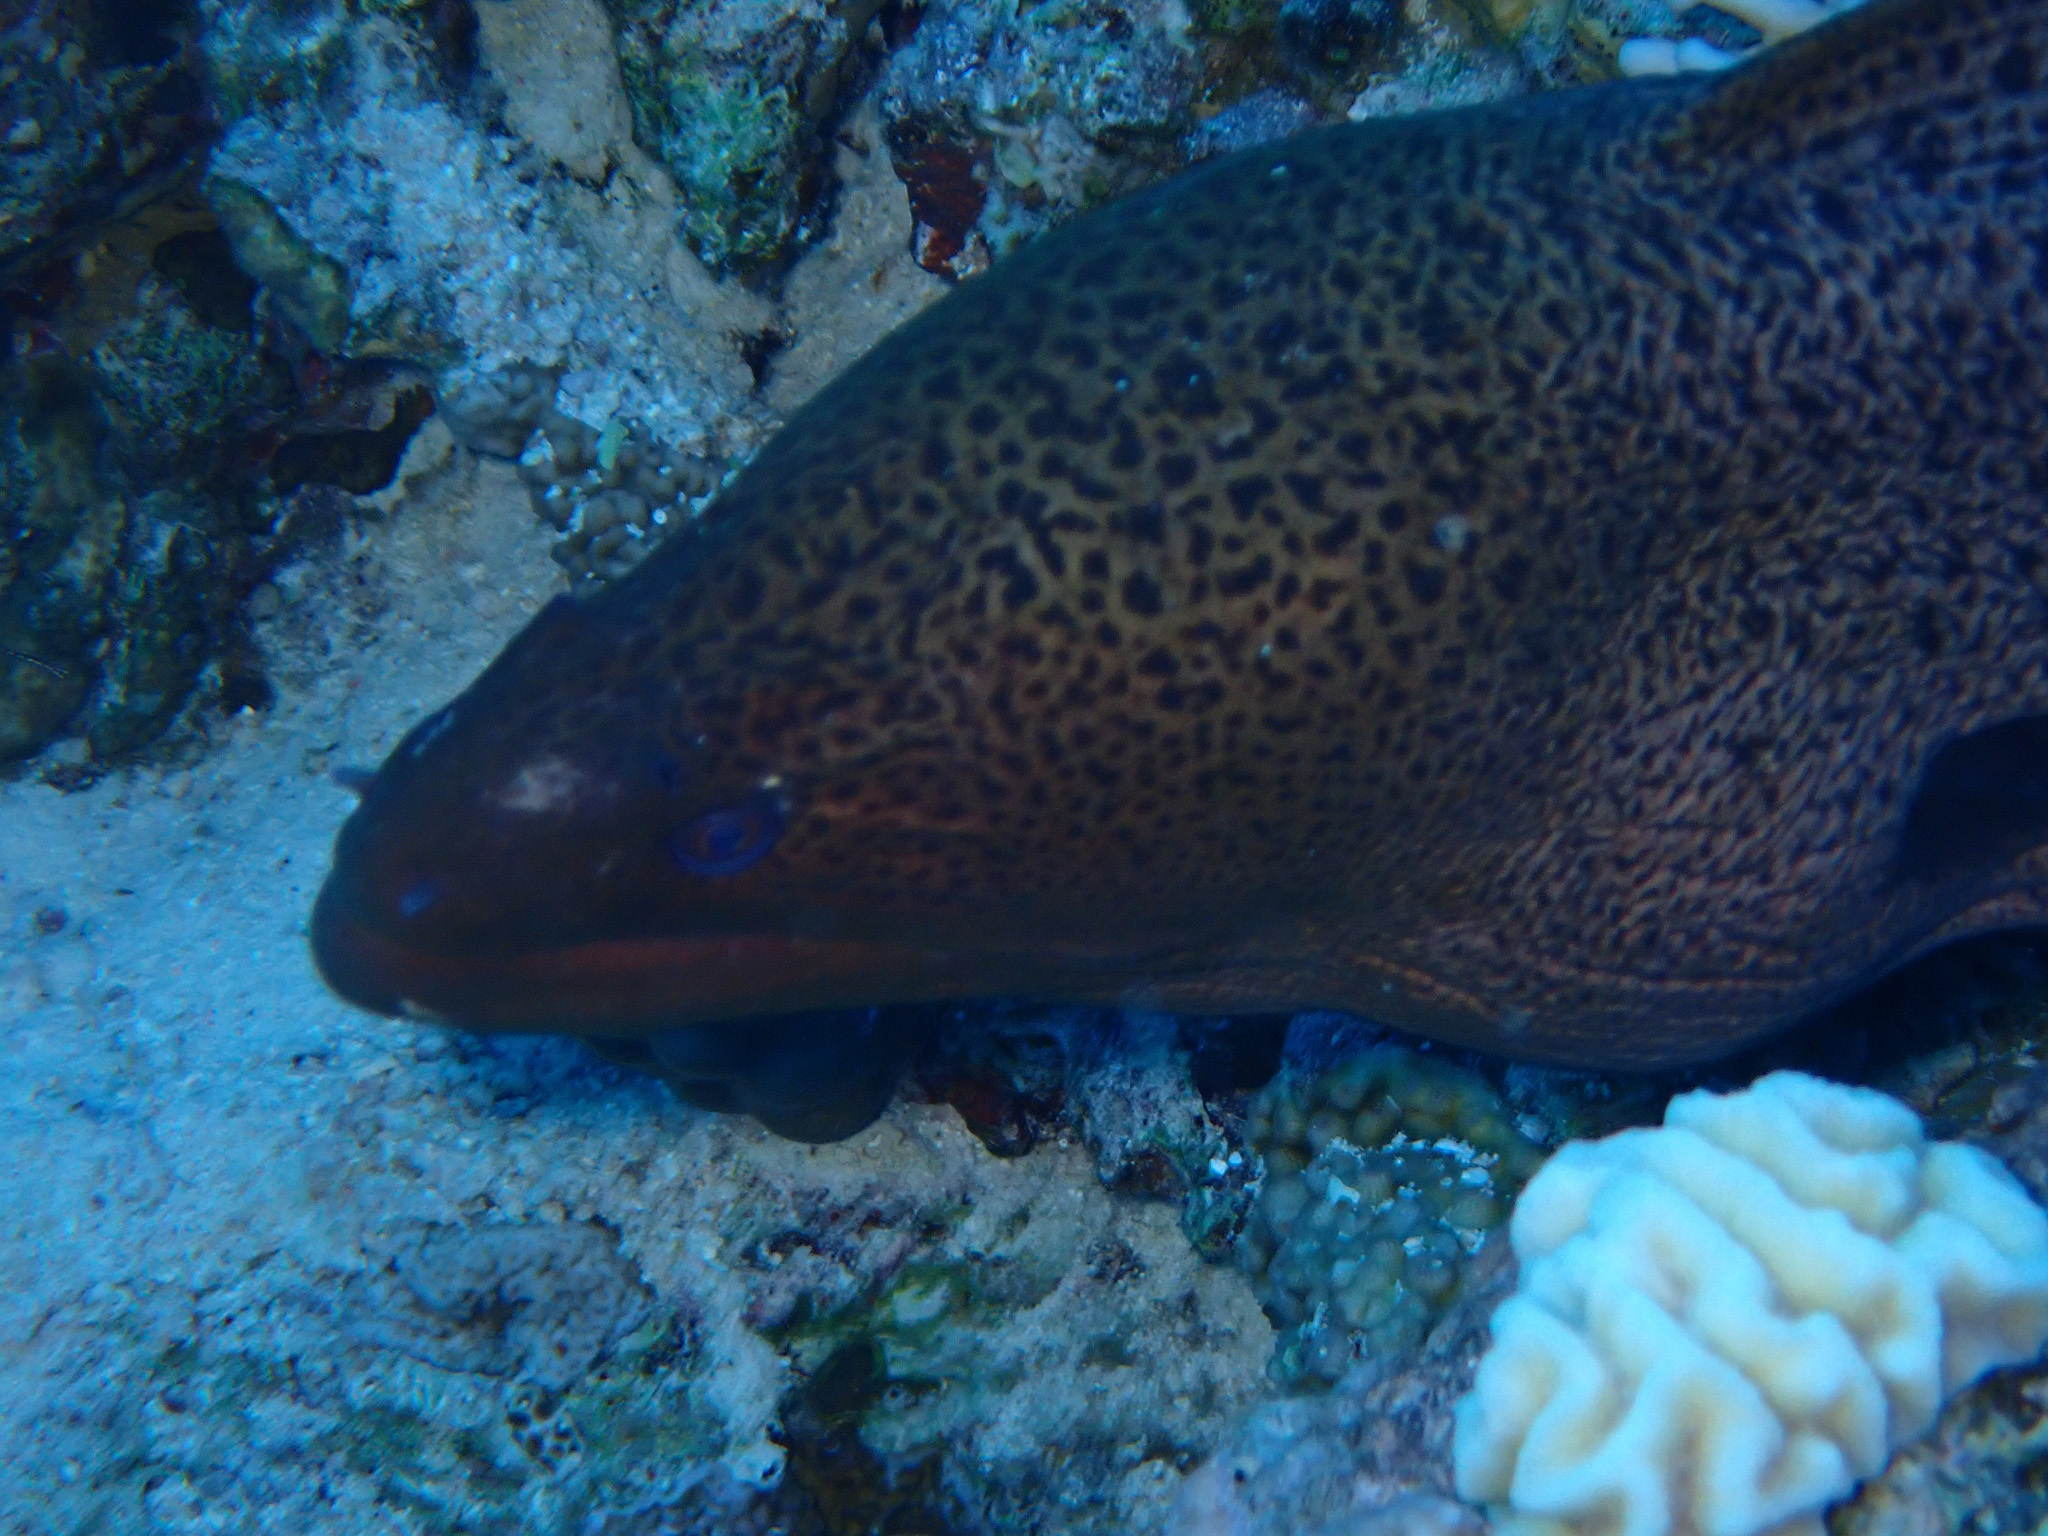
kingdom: Animalia
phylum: Chordata
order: Anguilliformes
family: Muraenidae
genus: Gymnothorax
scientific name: Gymnothorax javanicus
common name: Giant moray
